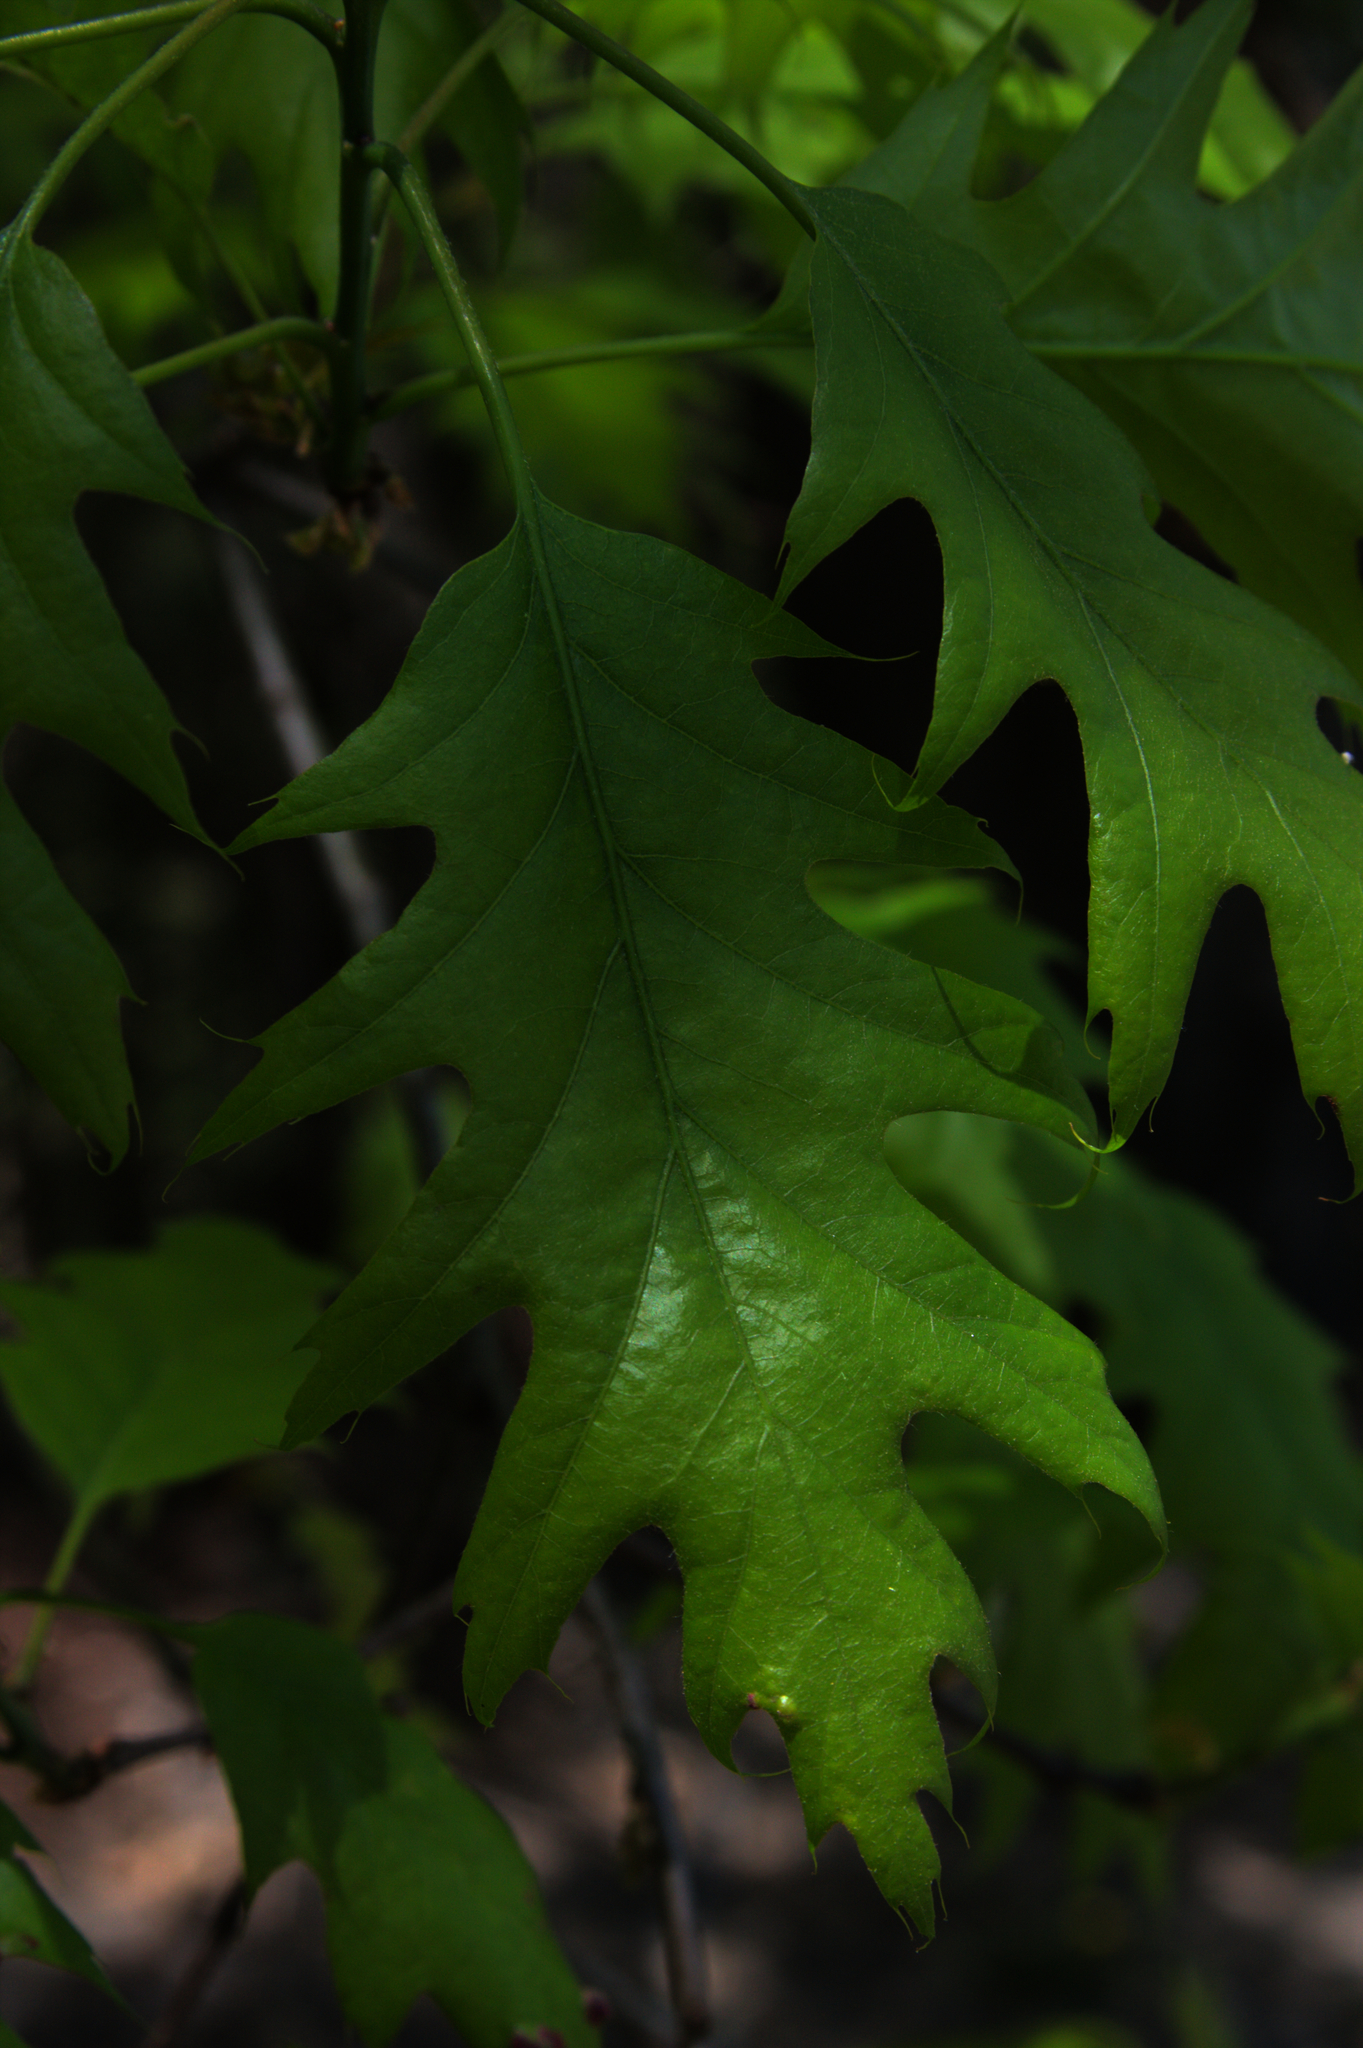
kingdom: Plantae
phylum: Tracheophyta
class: Magnoliopsida
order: Fagales
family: Fagaceae
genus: Quercus
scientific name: Quercus rubra
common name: Red oak
